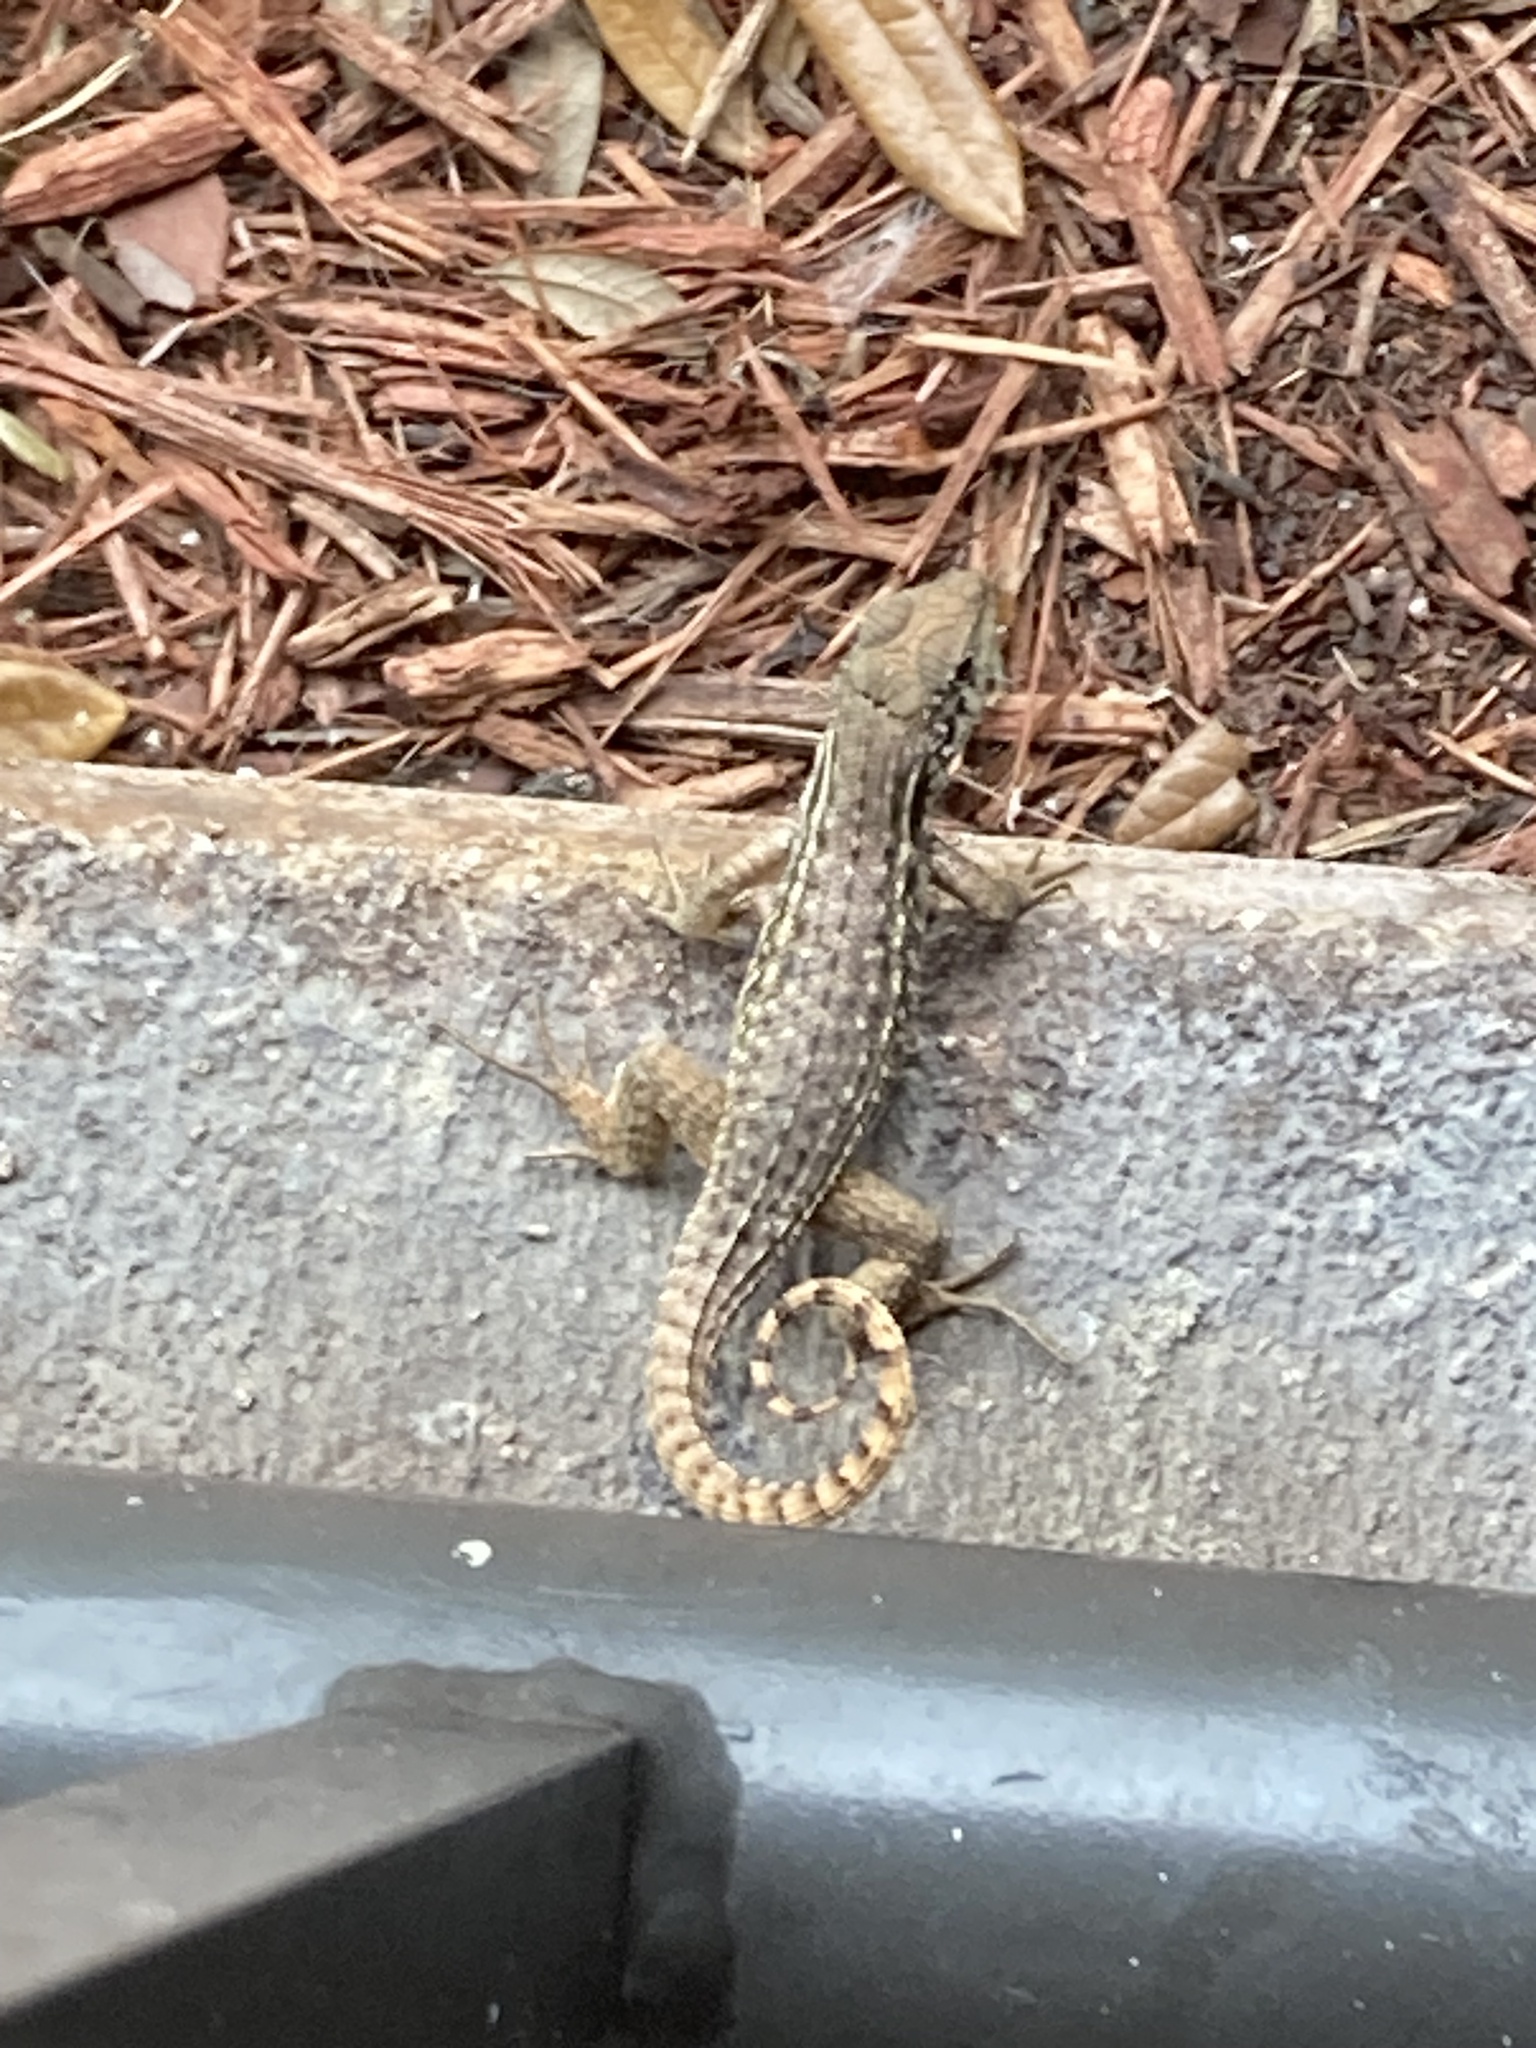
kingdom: Animalia
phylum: Chordata
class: Squamata
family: Leiocephalidae
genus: Leiocephalus
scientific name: Leiocephalus carinatus
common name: Northern curly-tailed lizard
